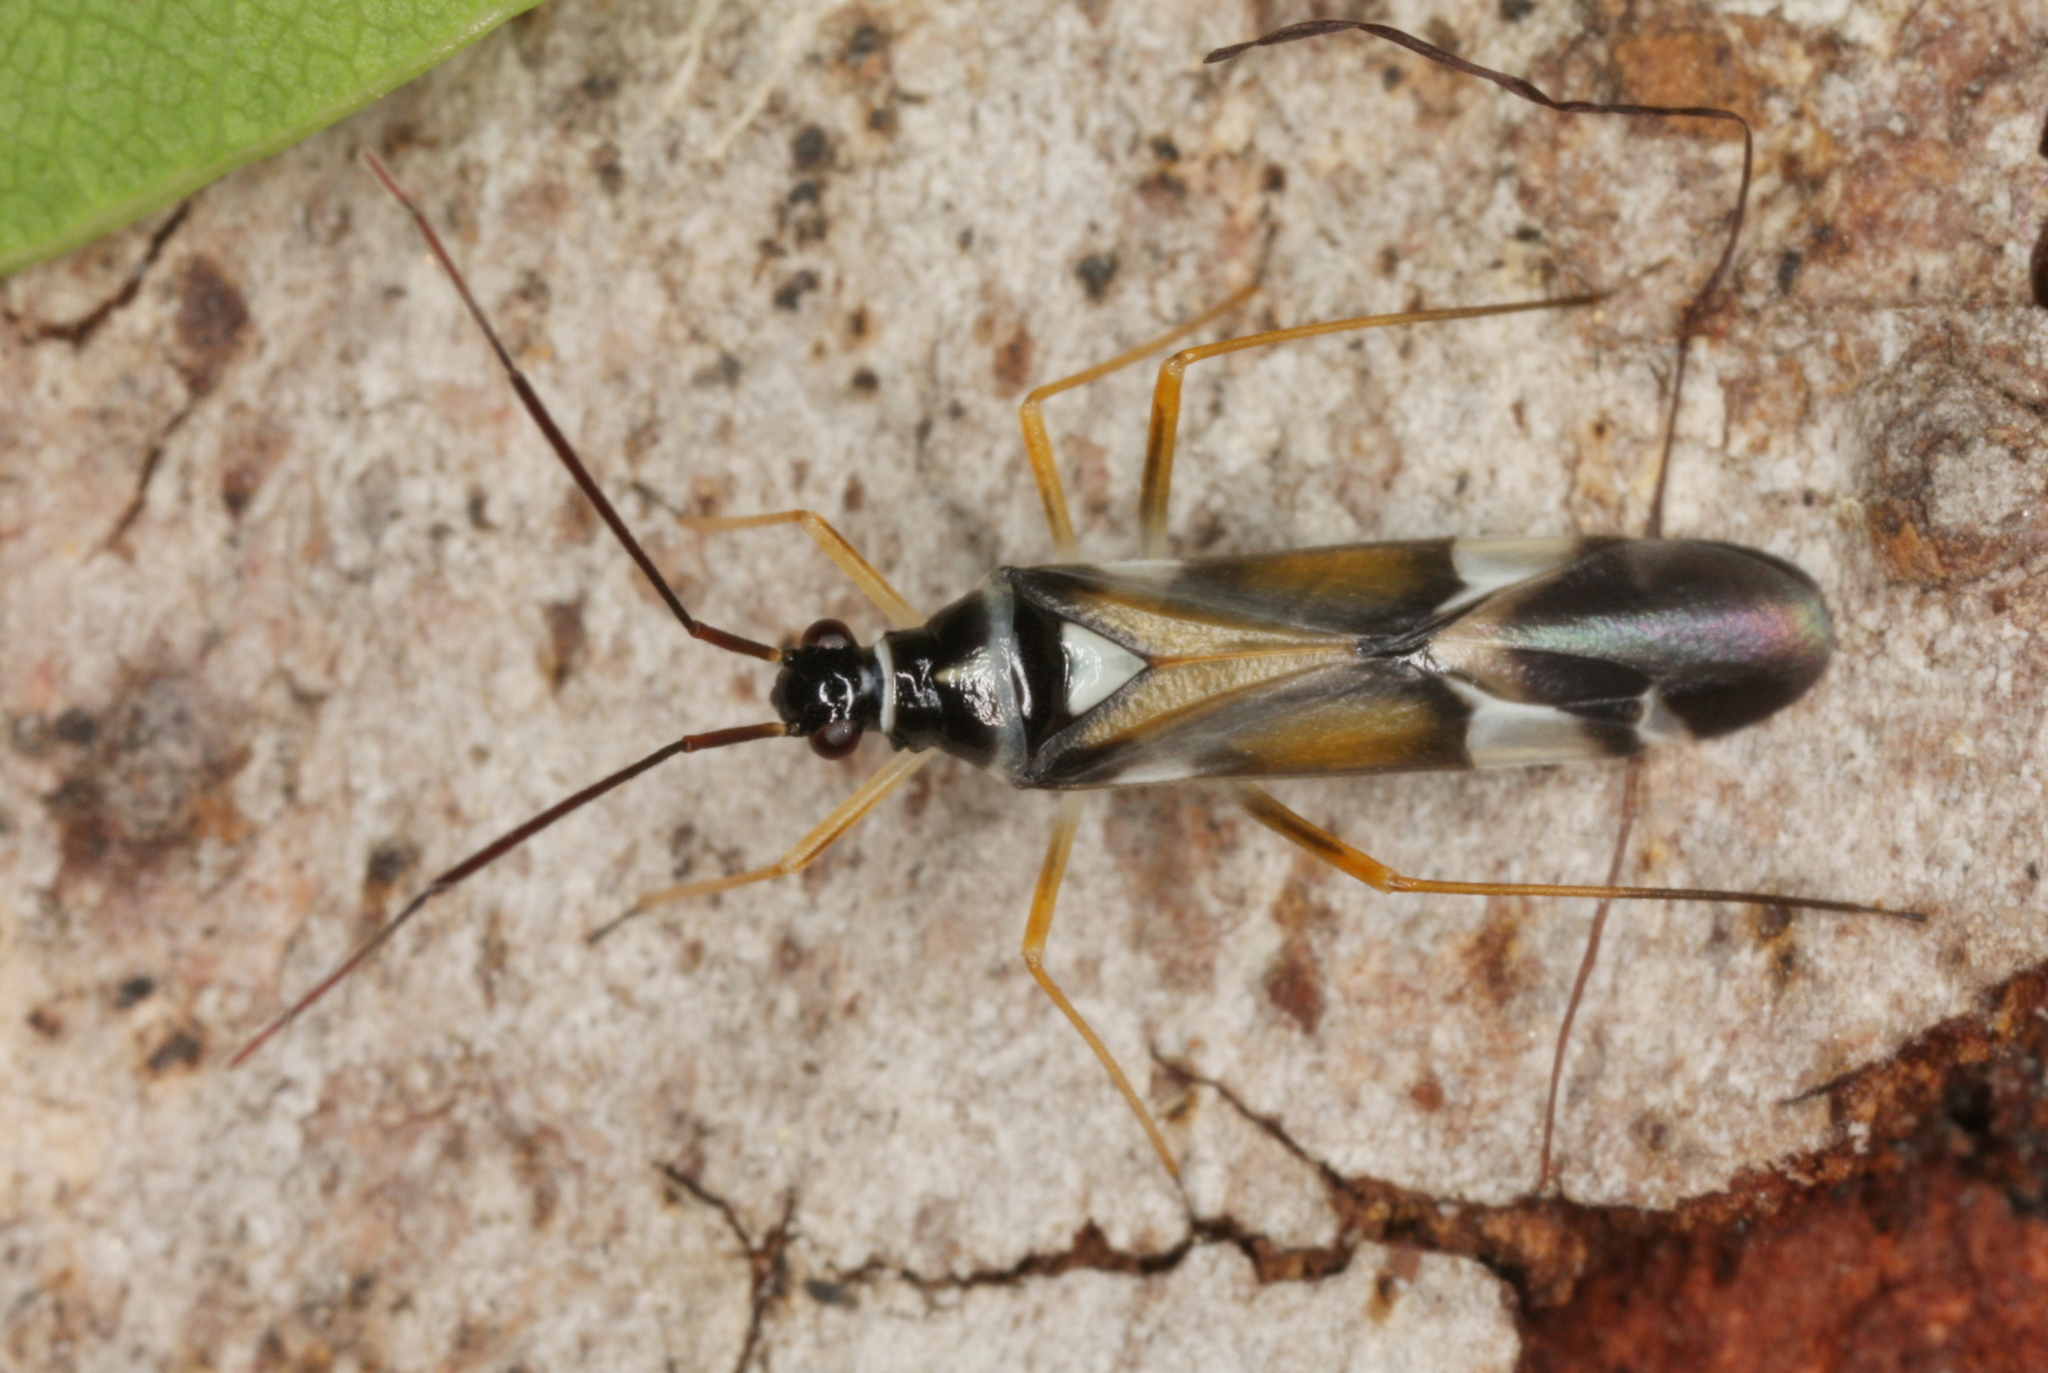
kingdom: Animalia
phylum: Arthropoda
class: Insecta
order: Hemiptera
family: Miridae
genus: Cyllecoris
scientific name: Cyllecoris histrionius
